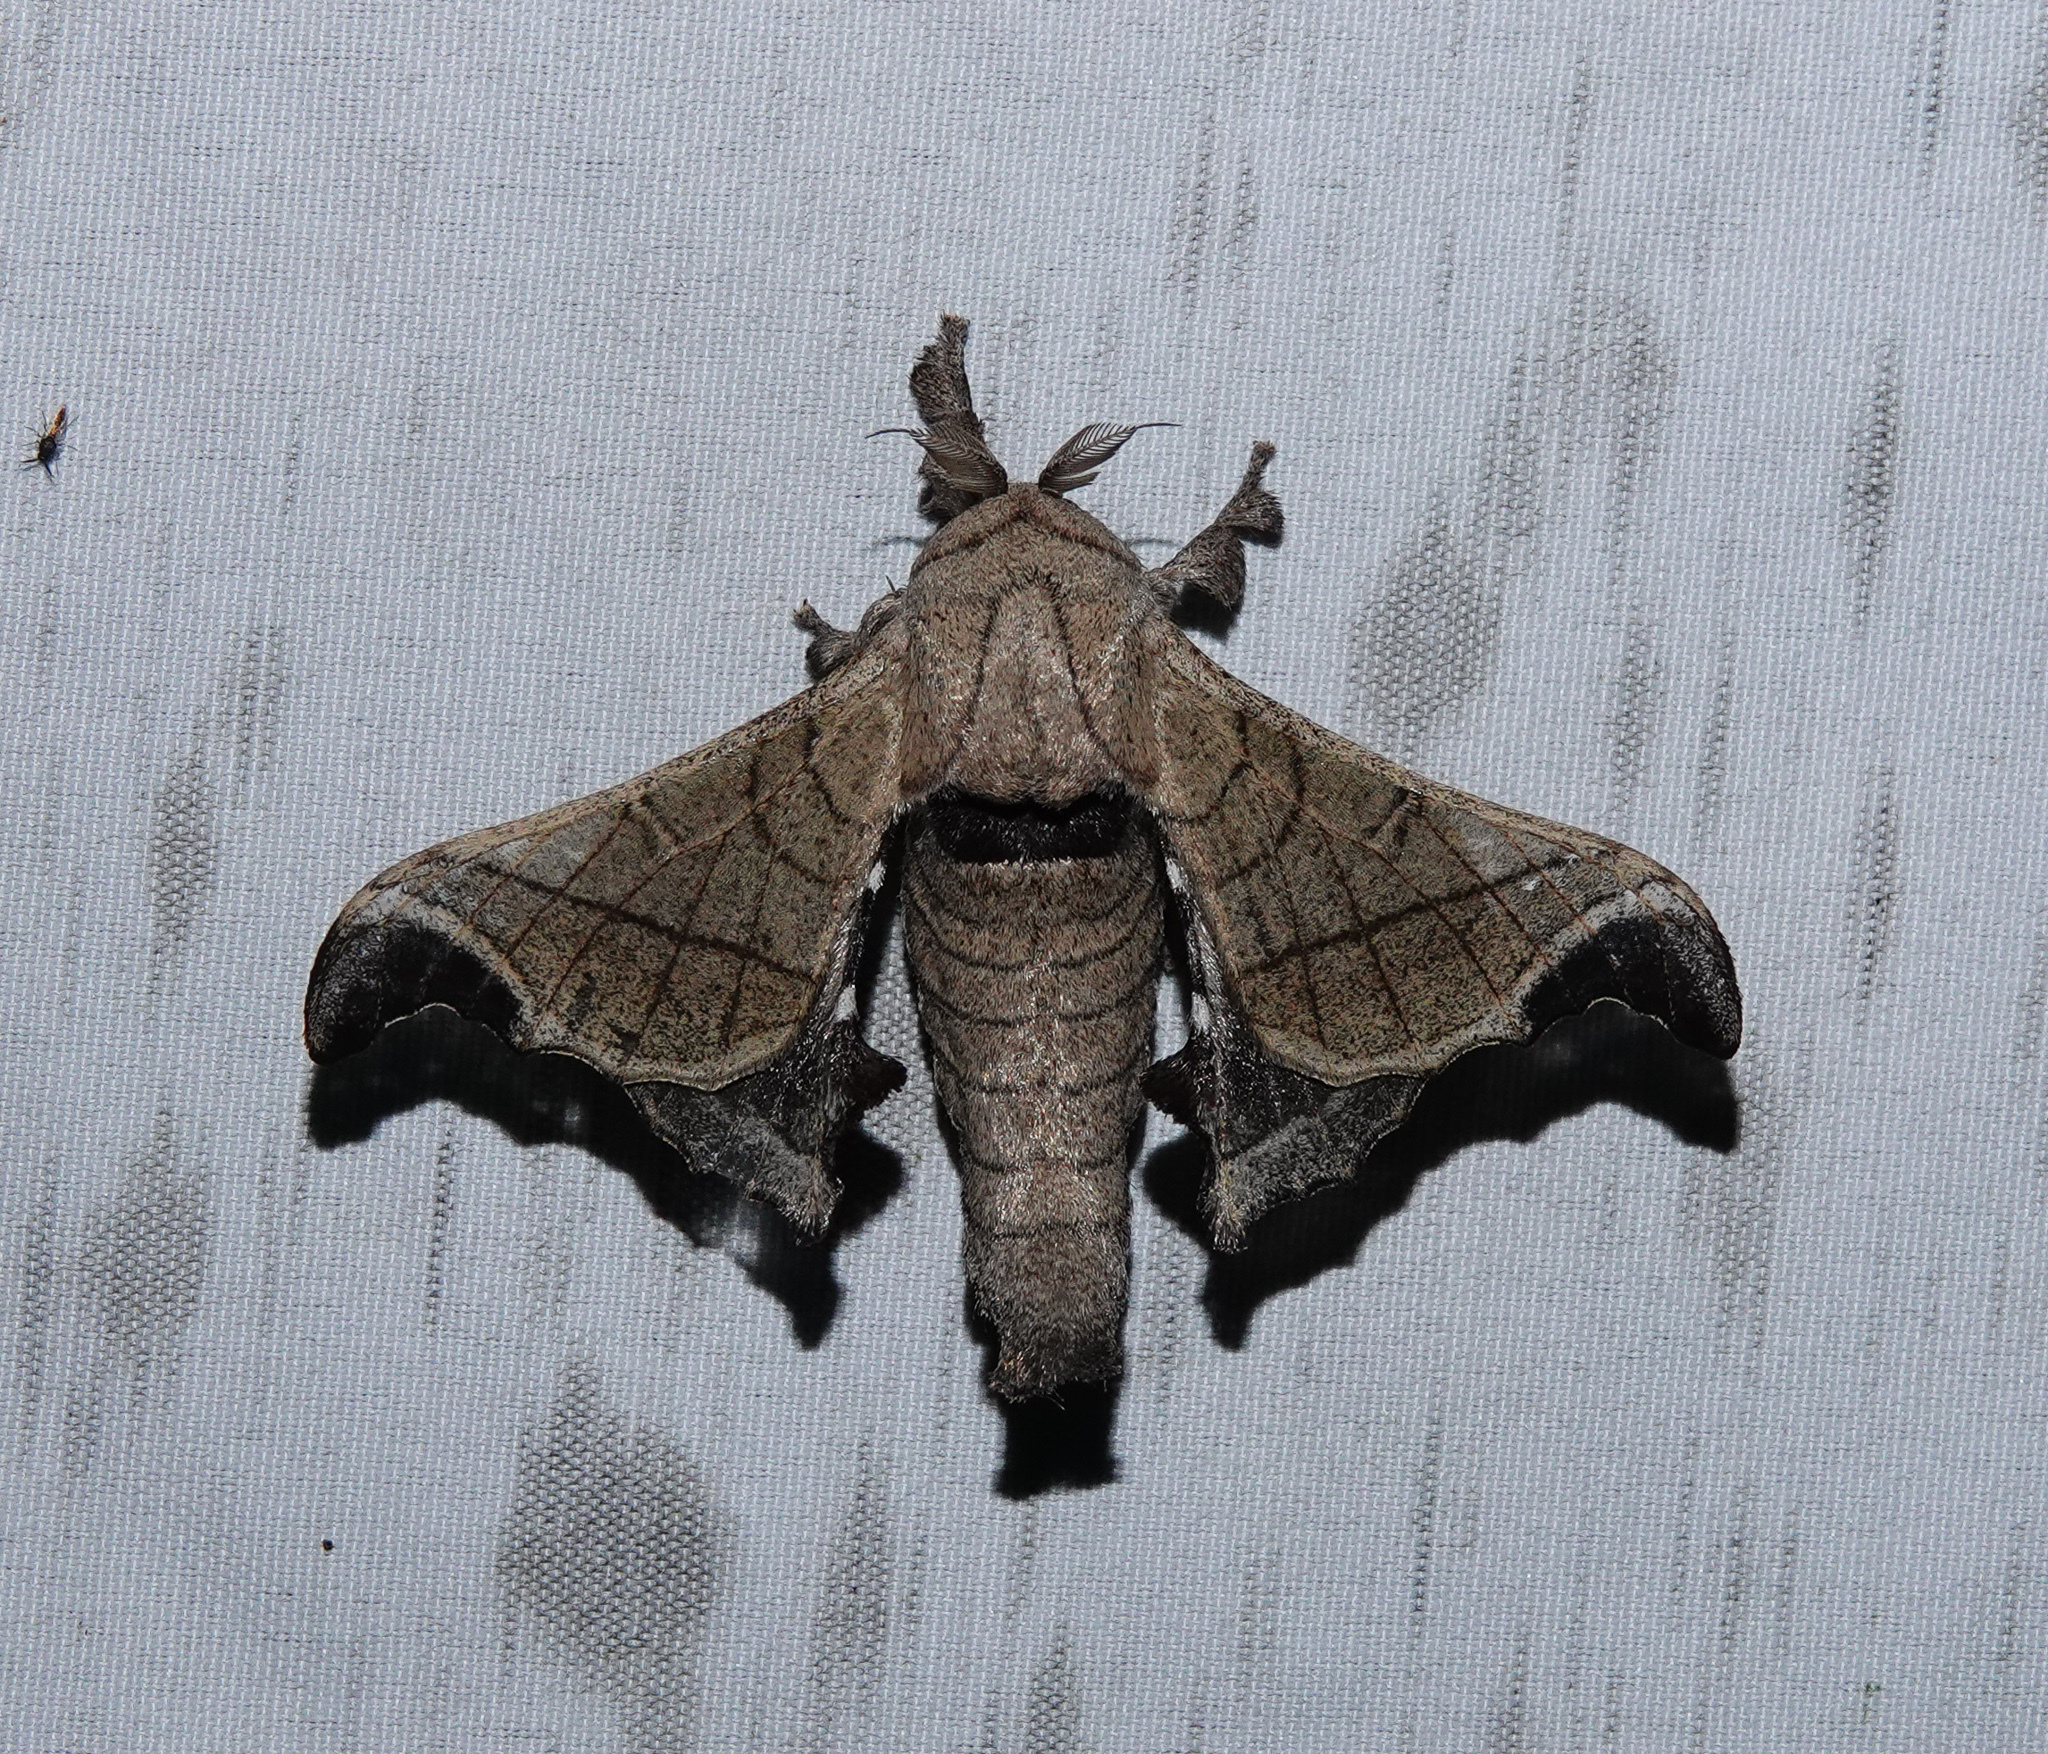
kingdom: Animalia
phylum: Arthropoda
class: Insecta
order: Lepidoptera
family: Bombycidae
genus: Bombyx
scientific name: Bombyx huttoni
